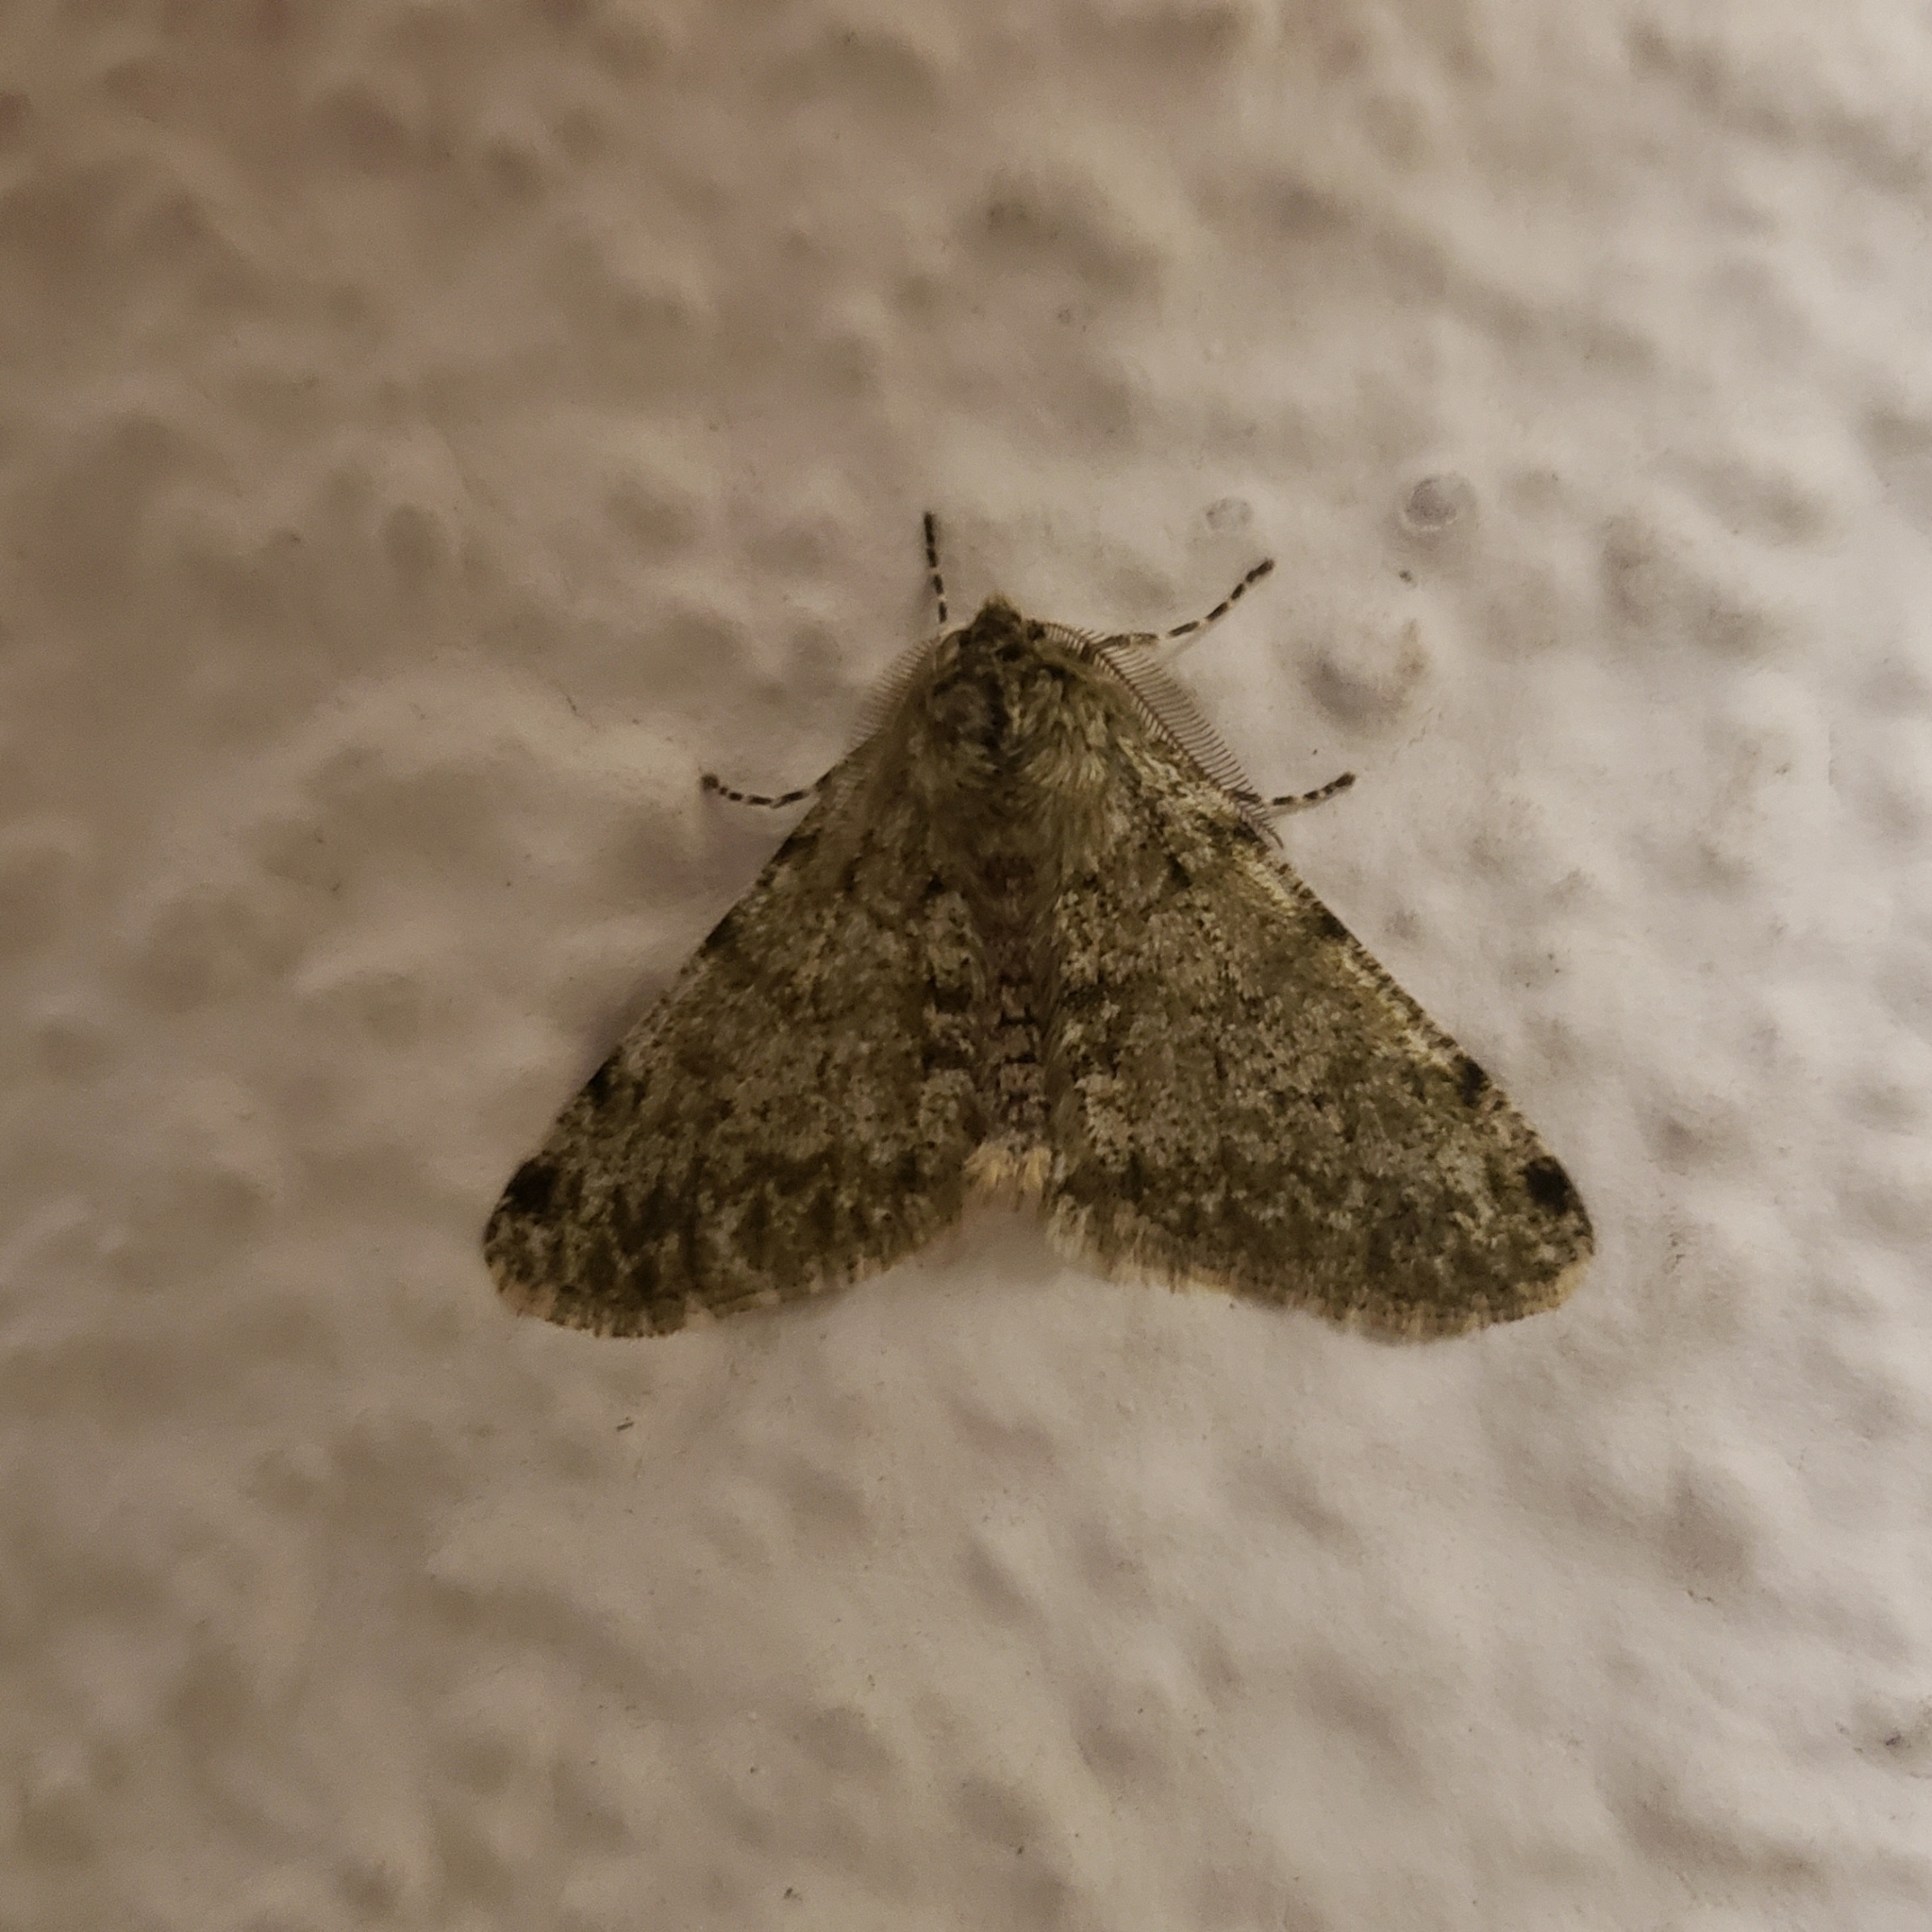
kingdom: Animalia
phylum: Arthropoda
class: Insecta
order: Lepidoptera
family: Geometridae
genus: Phigalia
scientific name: Phigalia pilosaria
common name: Pale brindled beauty
